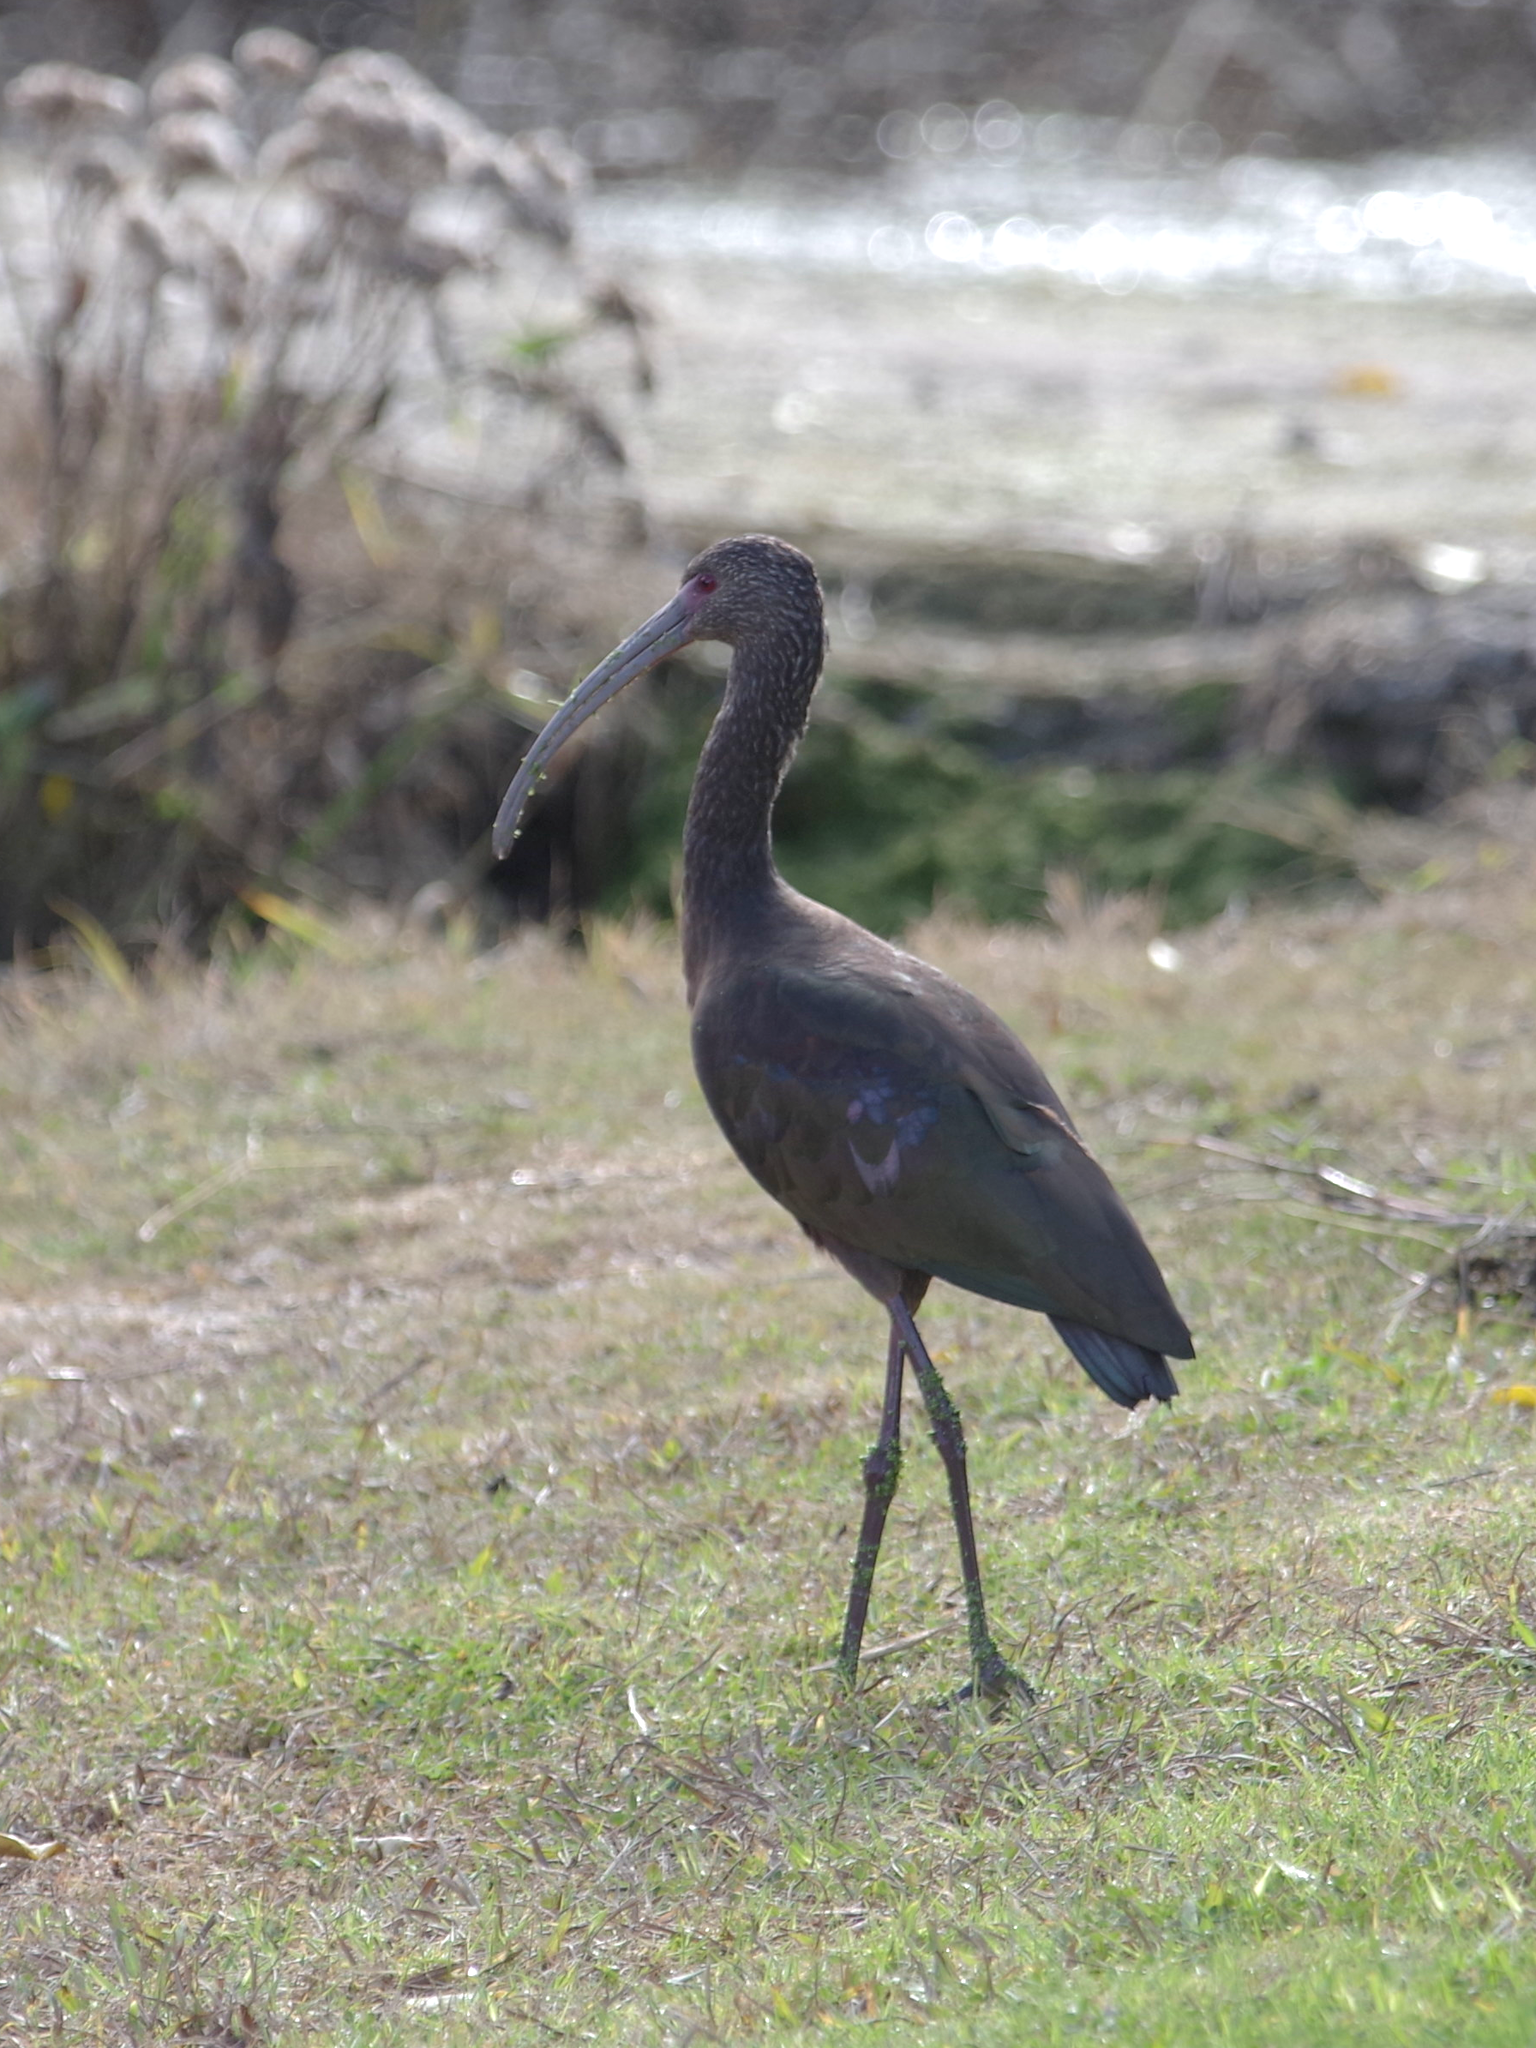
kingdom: Animalia
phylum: Chordata
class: Aves
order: Pelecaniformes
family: Threskiornithidae
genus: Plegadis
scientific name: Plegadis chihi
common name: White-faced ibis
